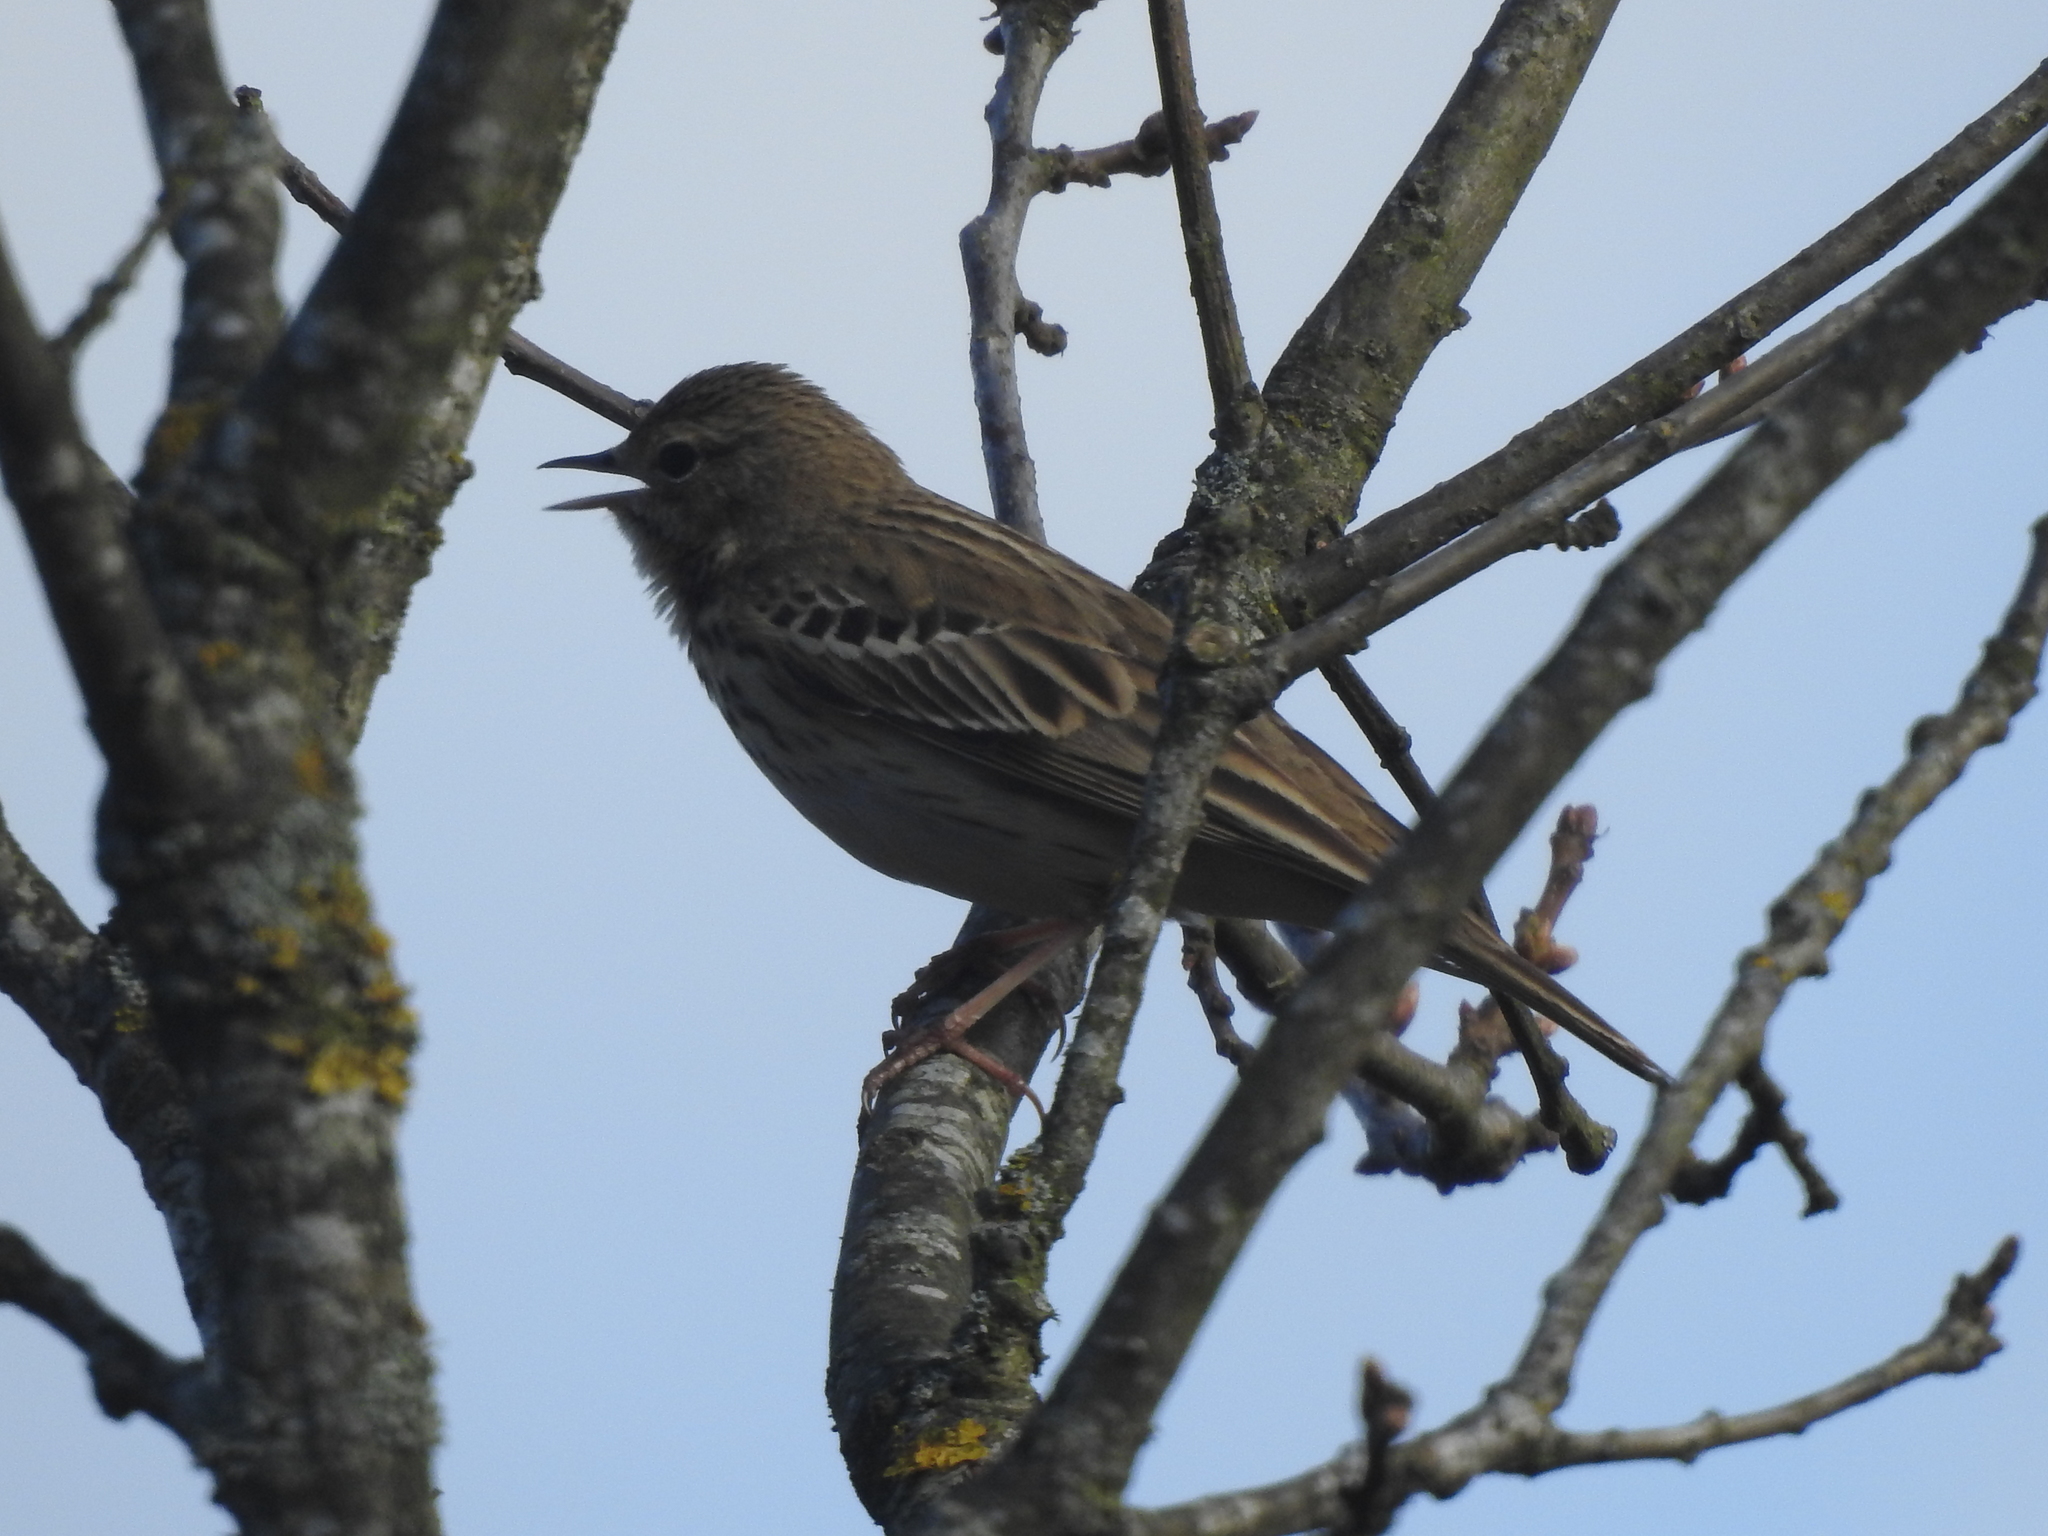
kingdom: Animalia
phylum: Chordata
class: Aves
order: Passeriformes
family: Motacillidae
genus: Anthus
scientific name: Anthus trivialis
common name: Tree pipit
